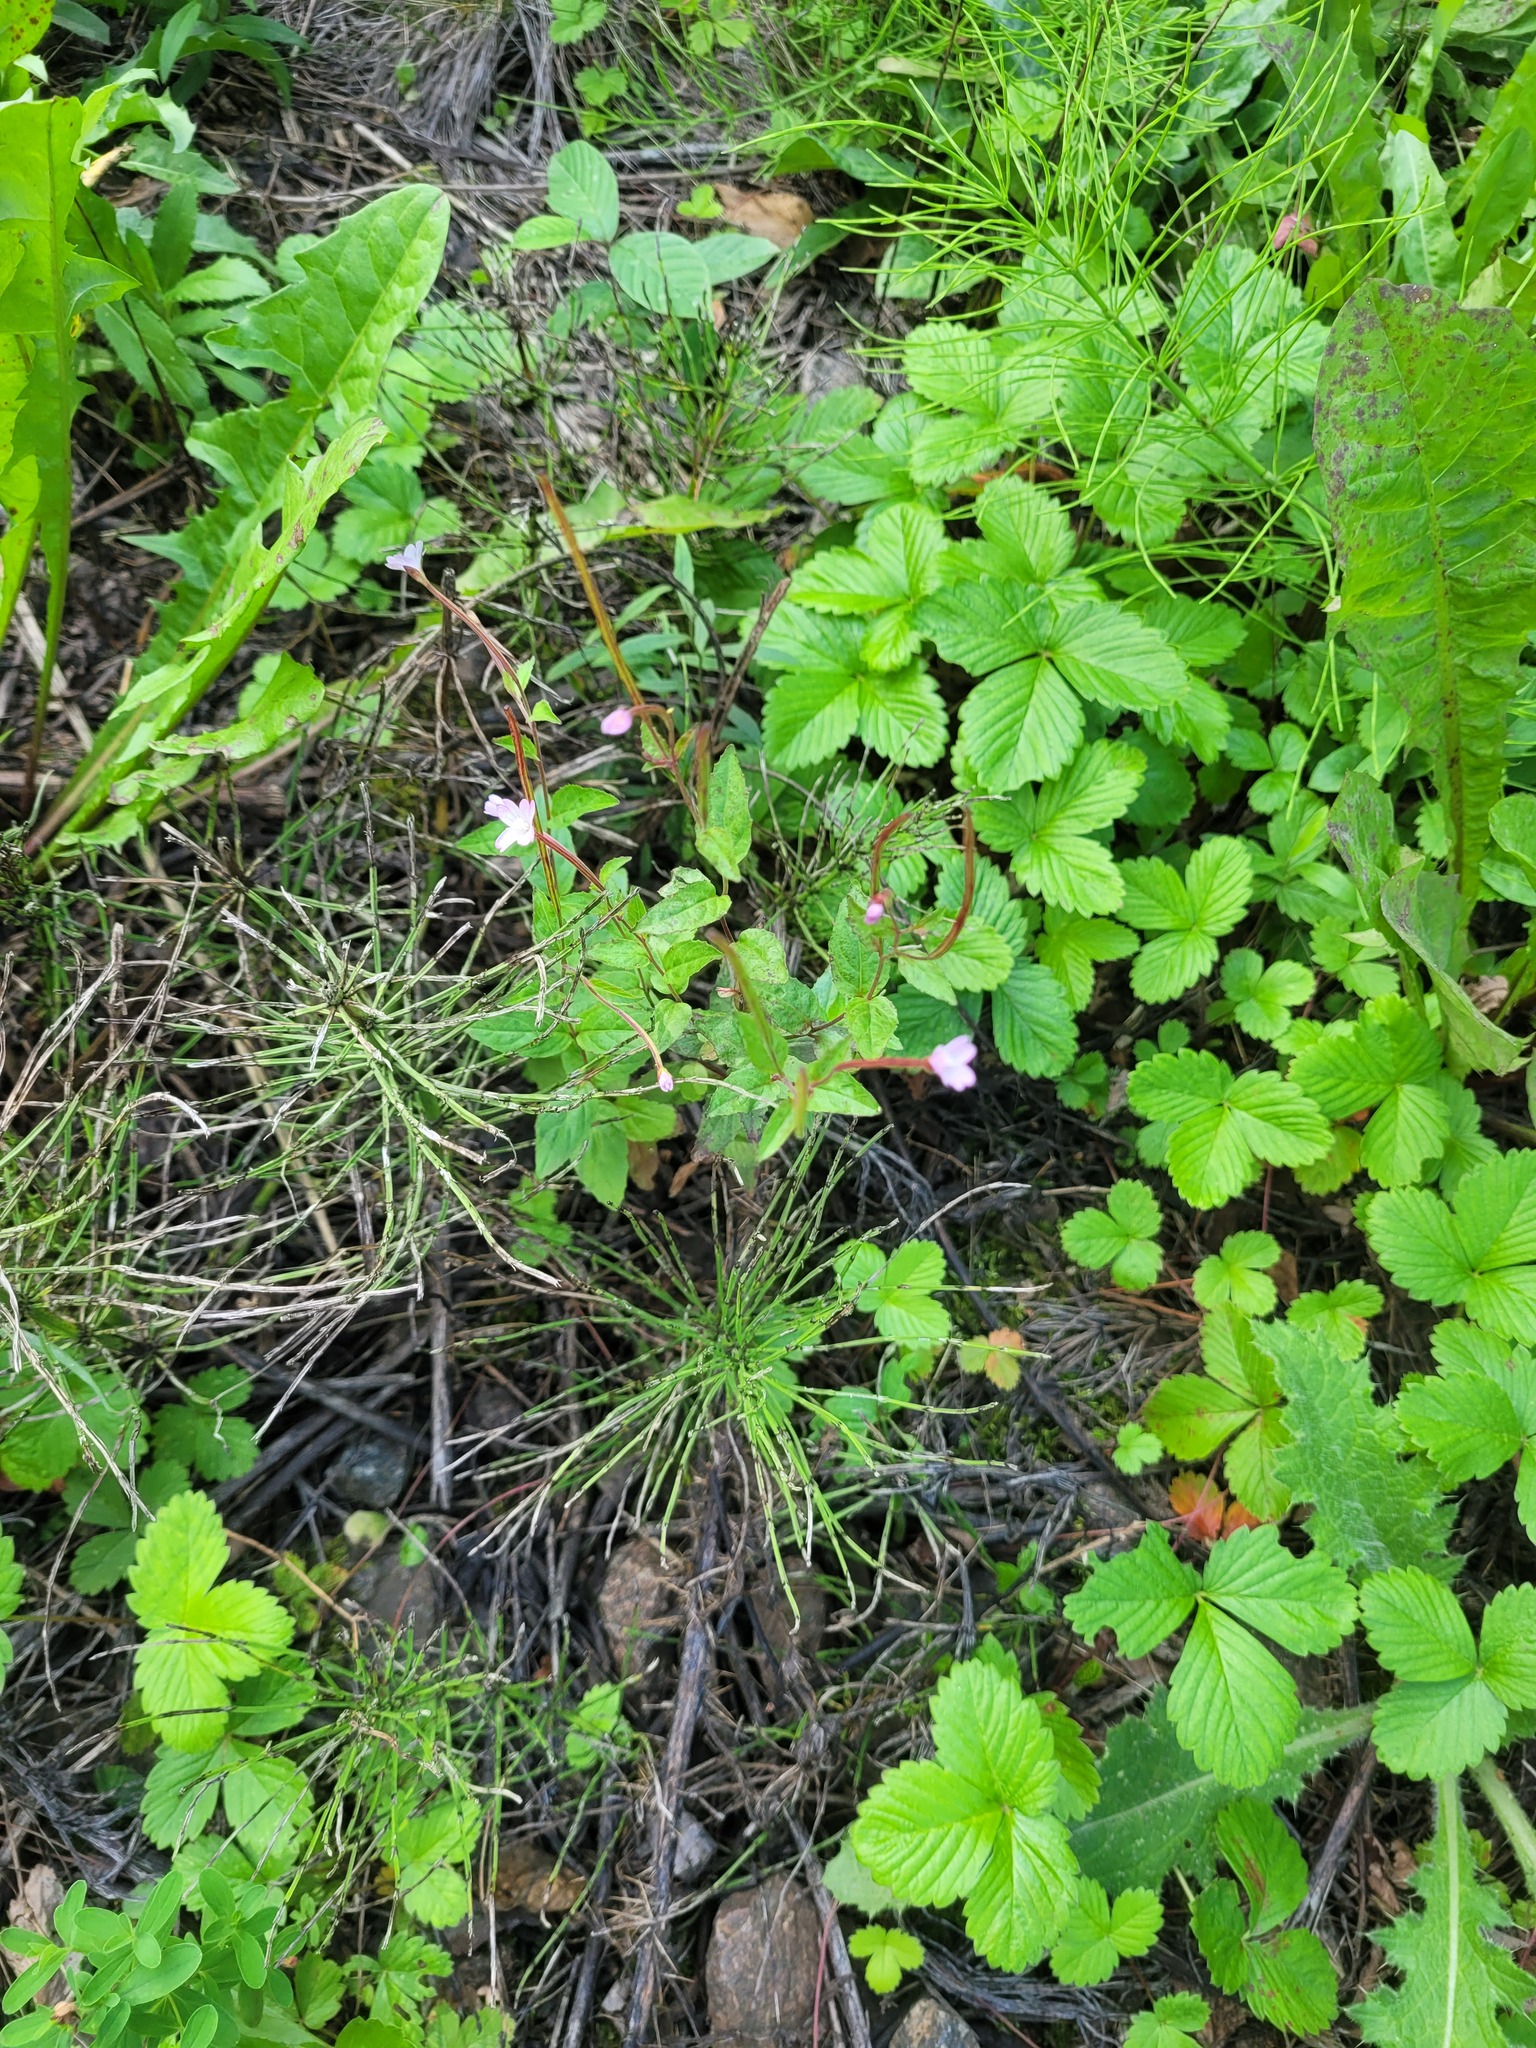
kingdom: Plantae
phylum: Tracheophyta
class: Magnoliopsida
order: Myrtales
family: Onagraceae
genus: Epilobium
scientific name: Epilobium montanum
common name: Broad-leaved willowherb
